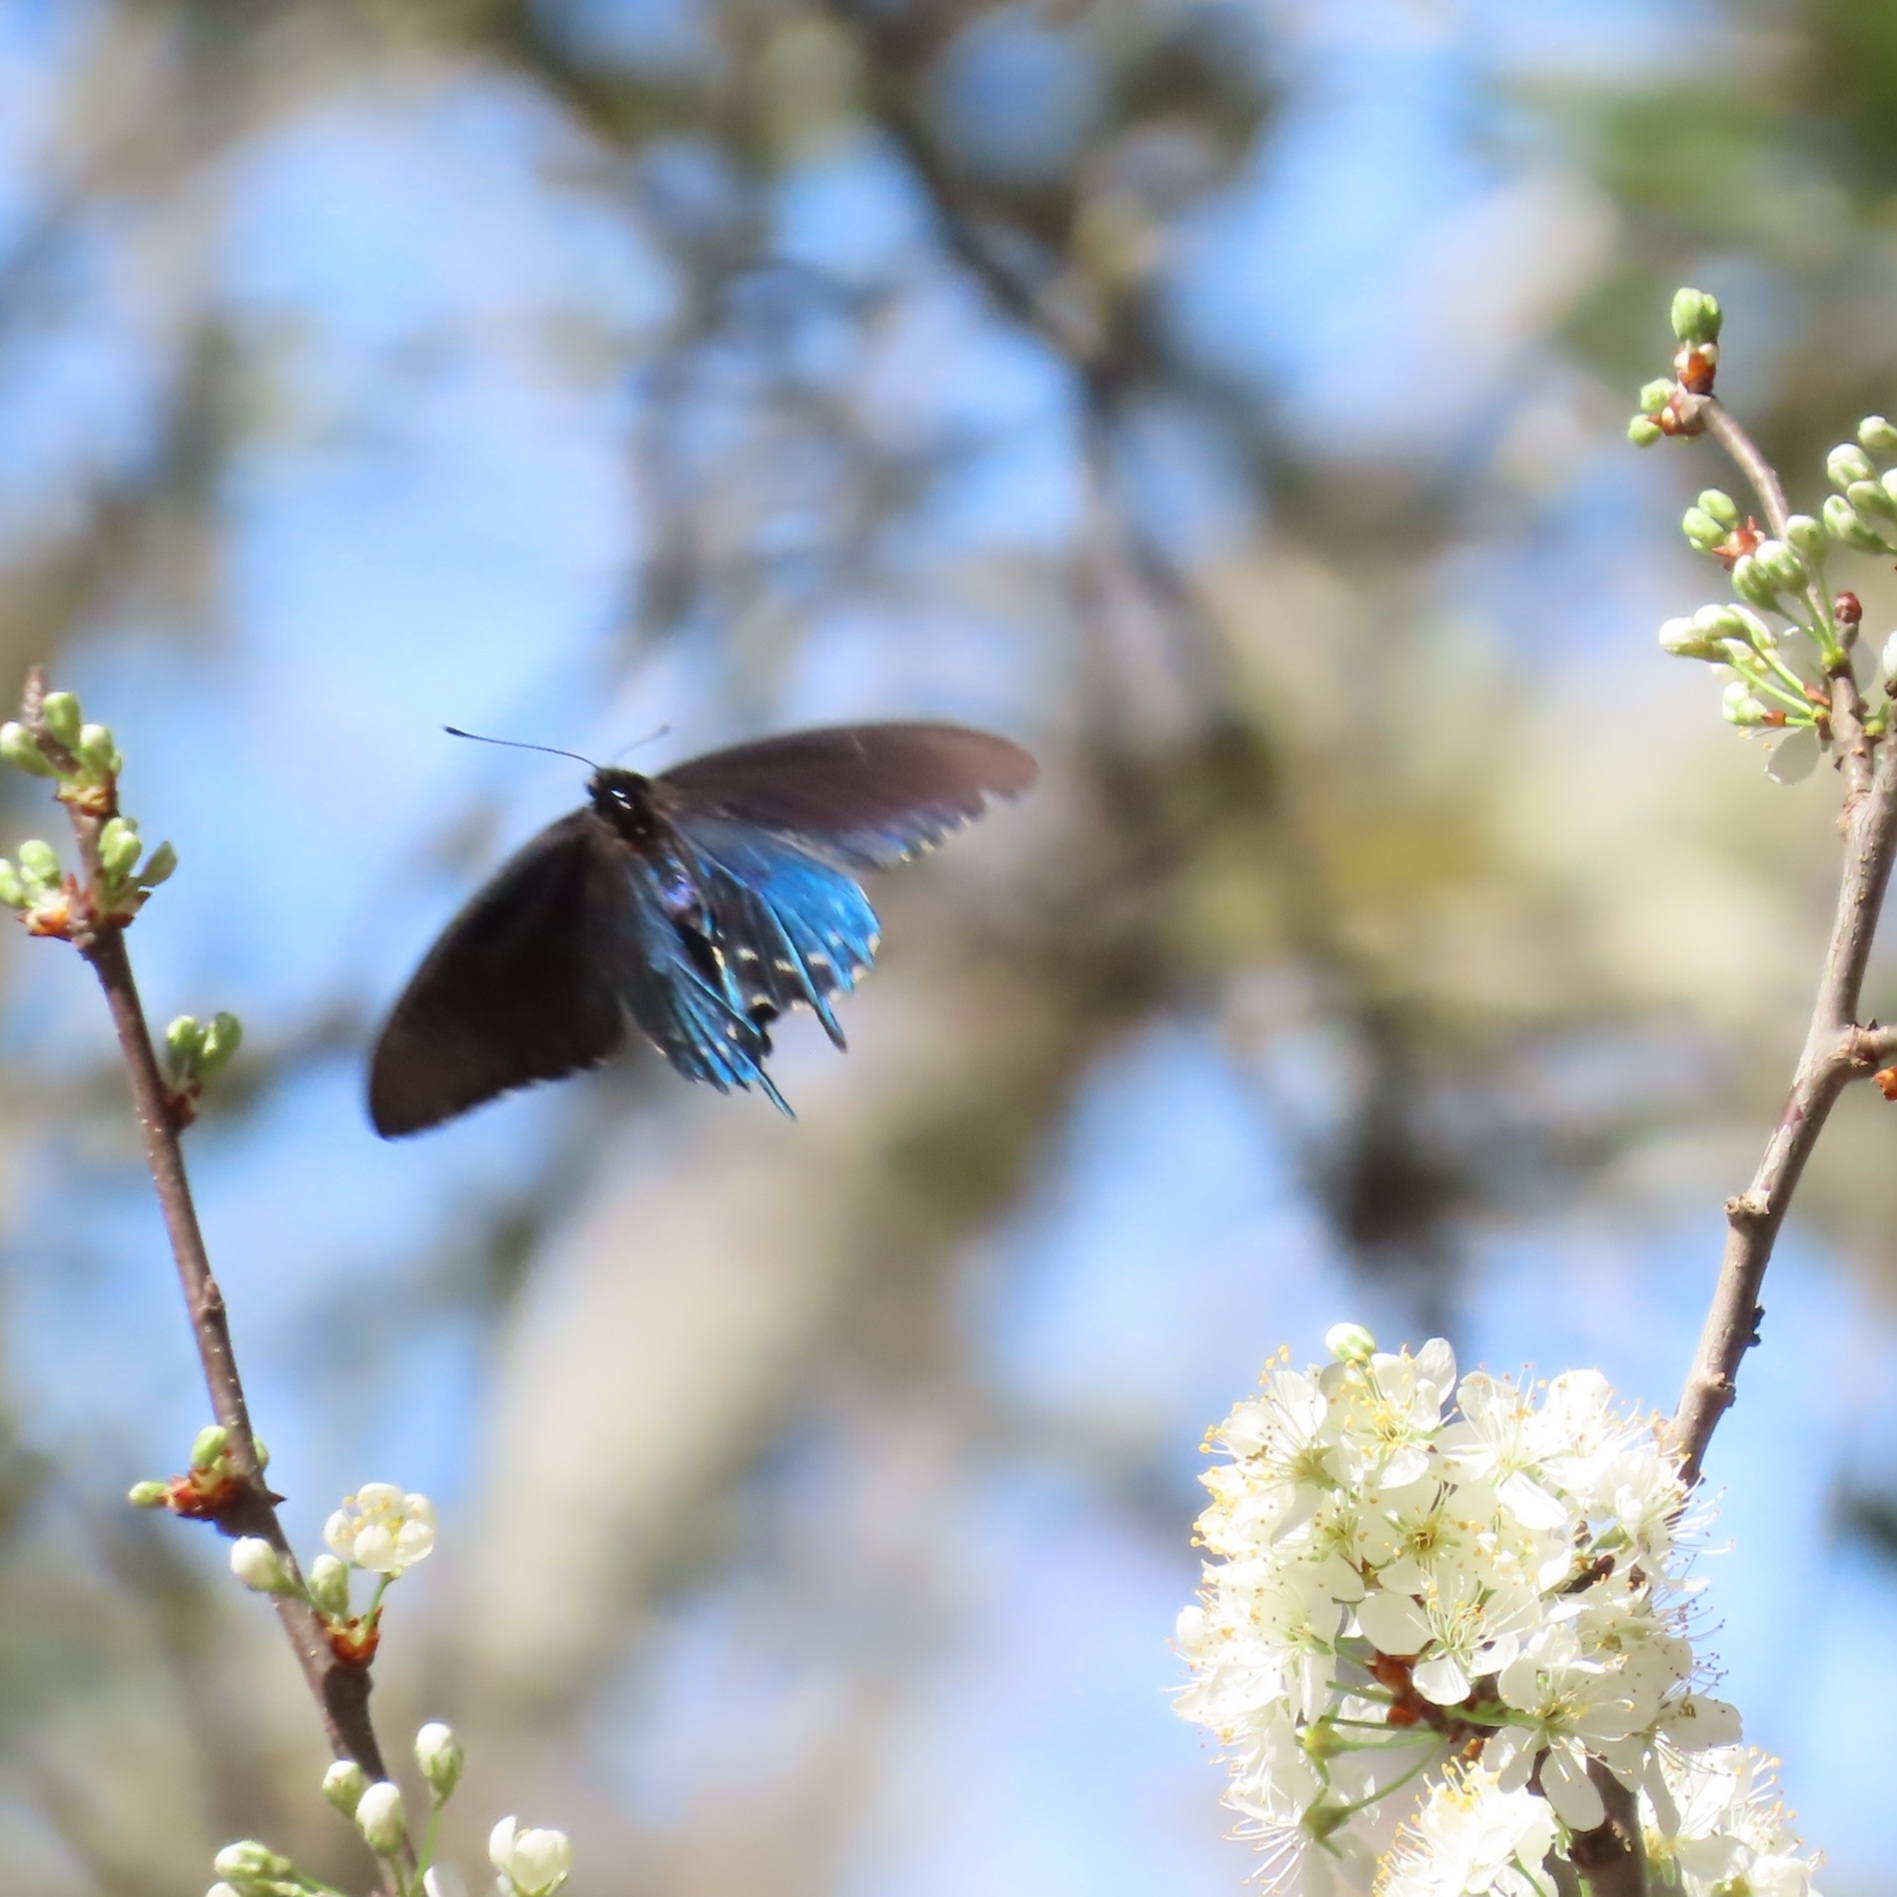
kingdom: Animalia
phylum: Arthropoda
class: Insecta
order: Lepidoptera
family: Papilionidae
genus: Battus
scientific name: Battus philenor
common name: Pipevine swallowtail
